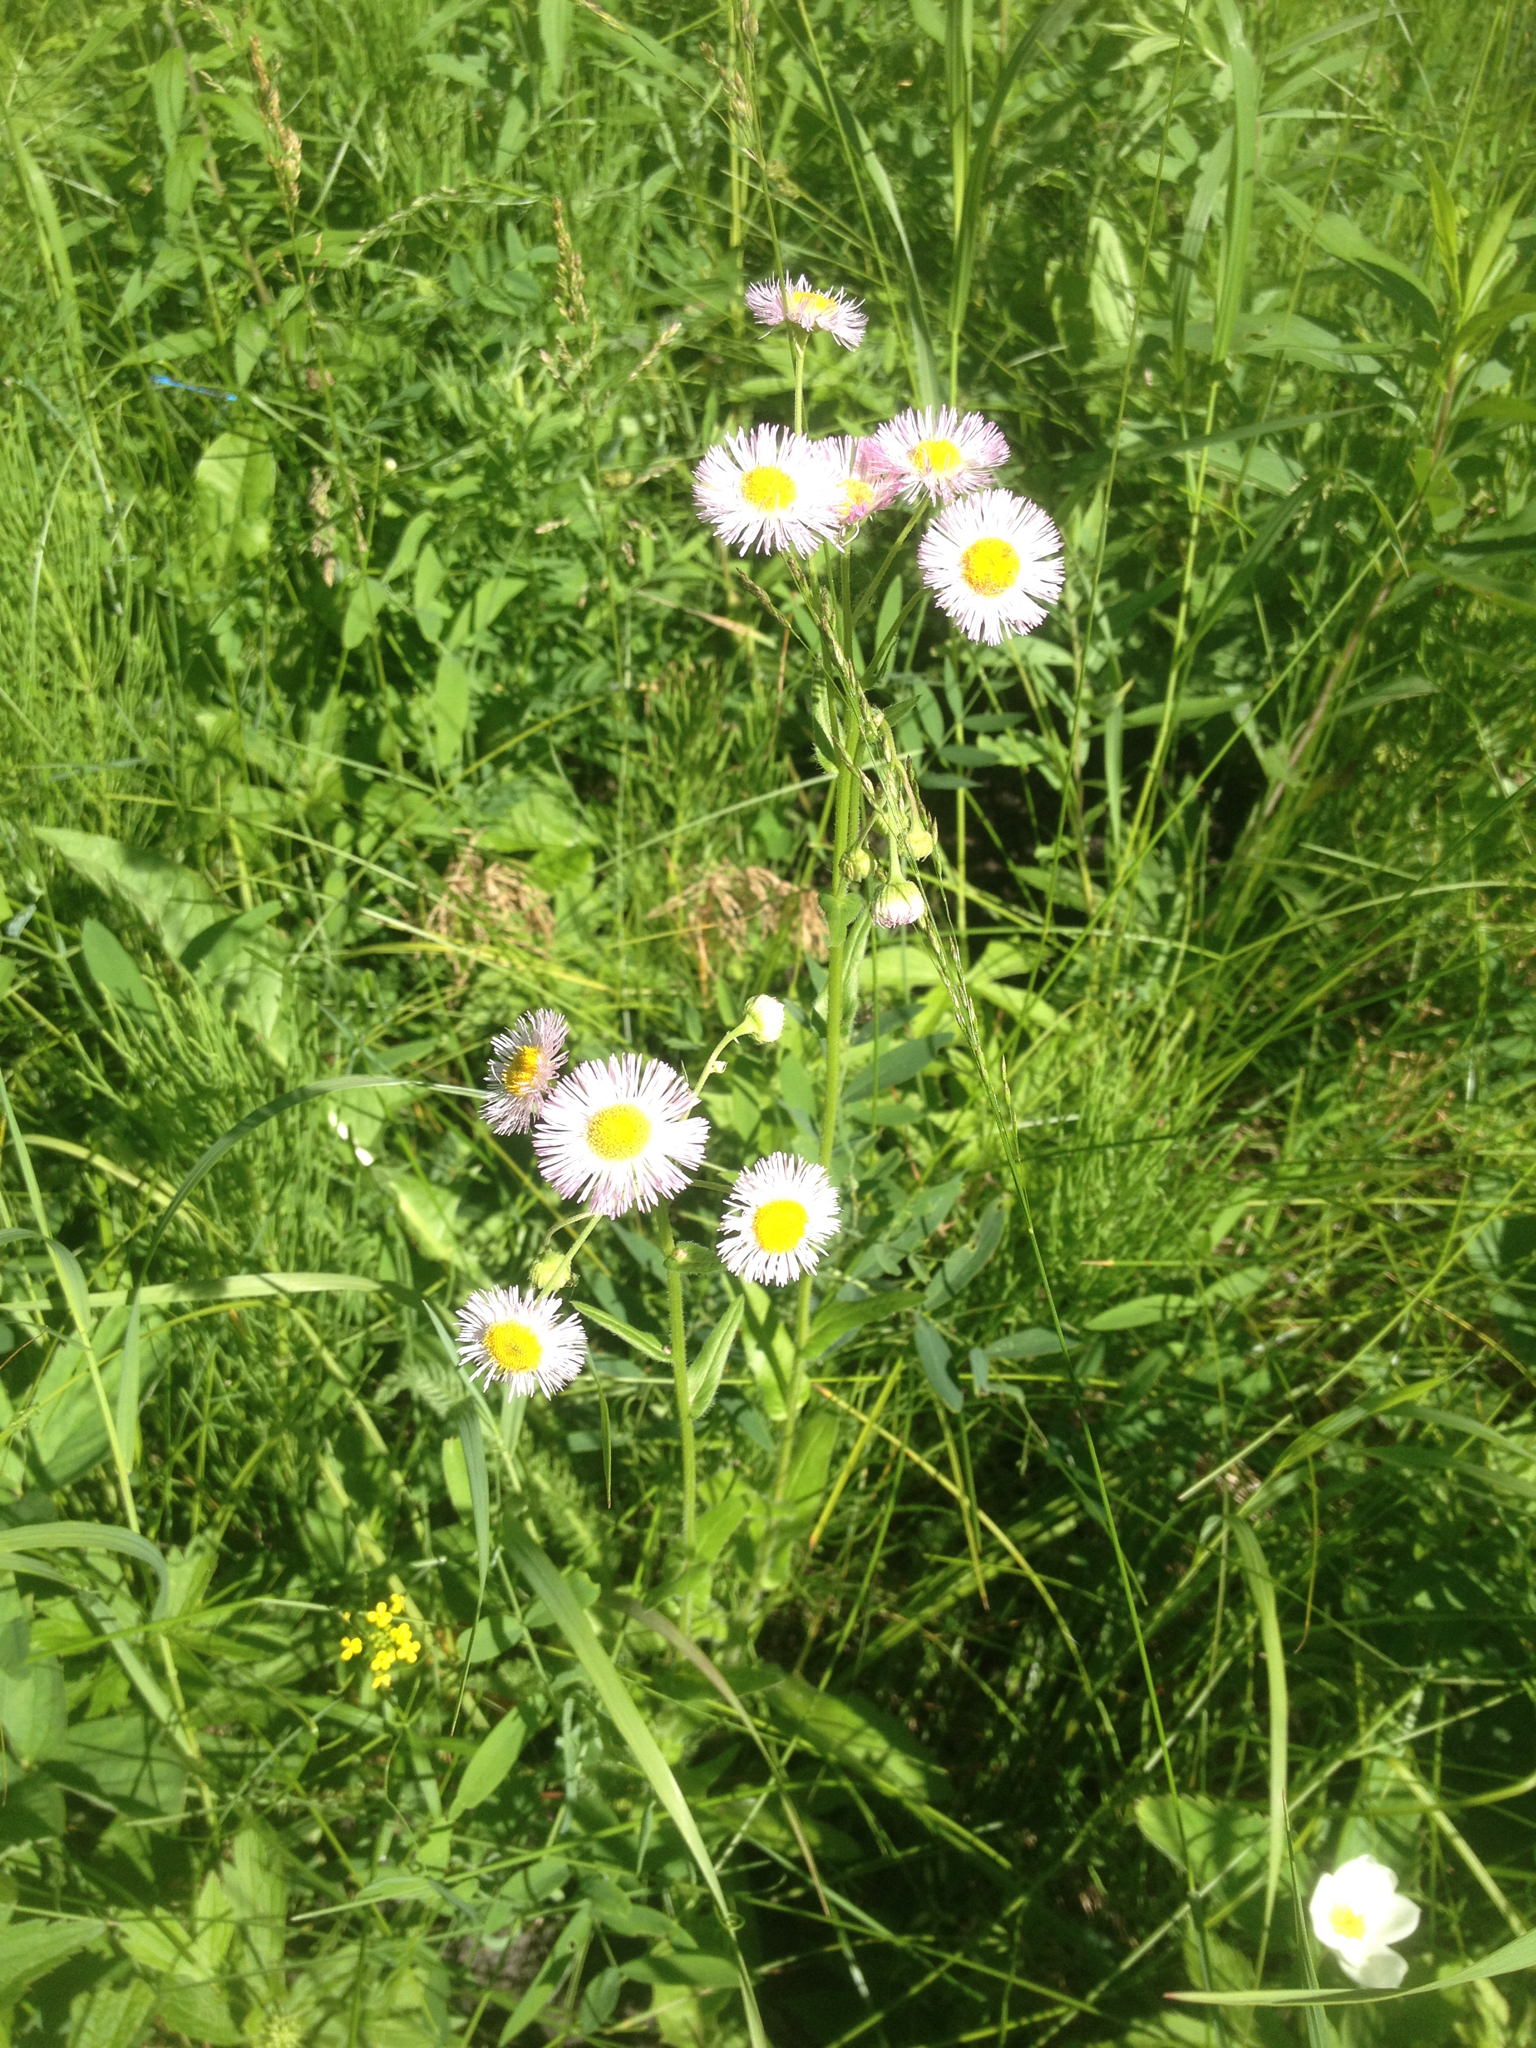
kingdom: Plantae
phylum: Tracheophyta
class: Magnoliopsida
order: Asterales
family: Asteraceae
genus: Erigeron
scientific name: Erigeron philadelphicus
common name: Robin's-plantain
